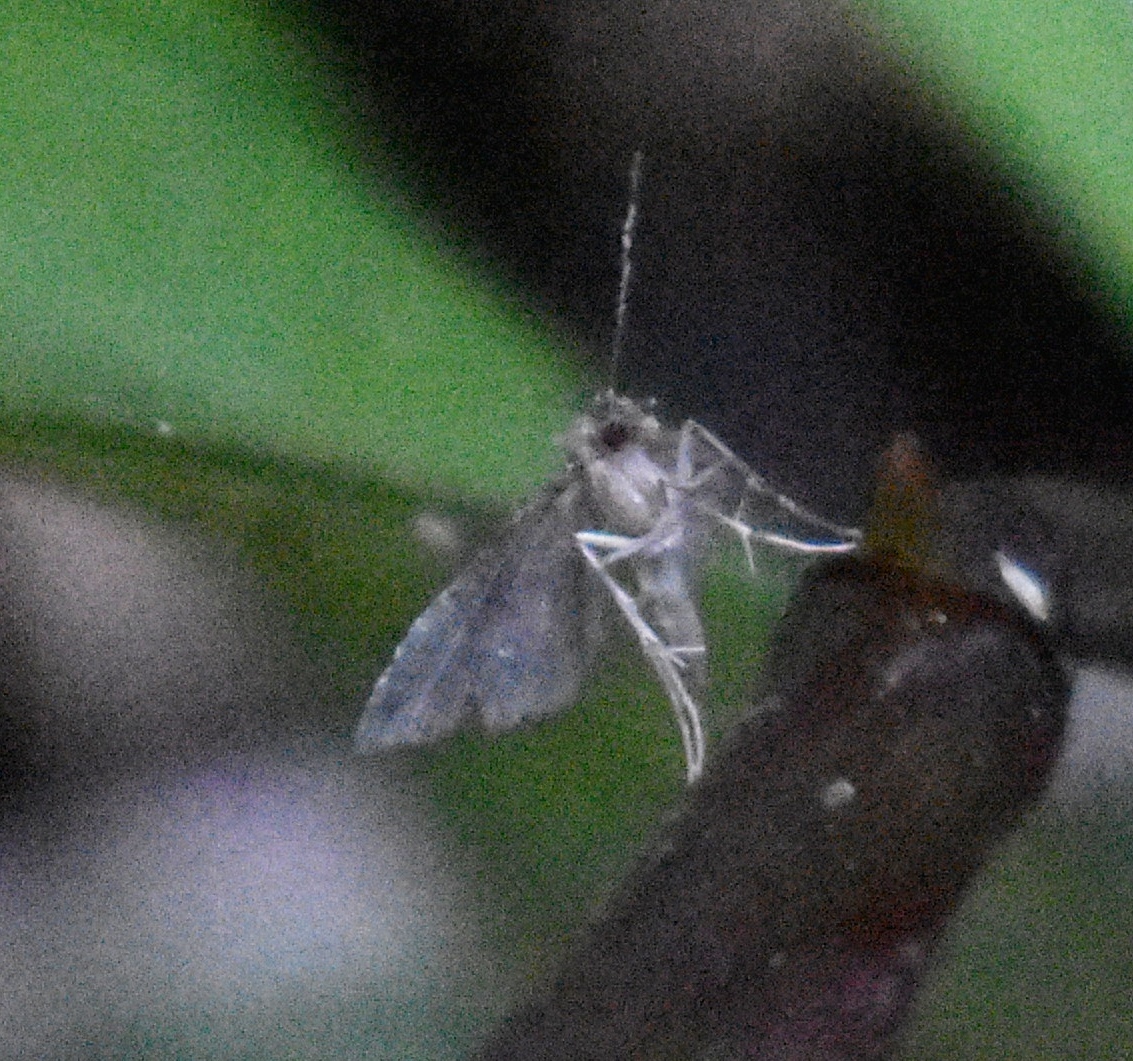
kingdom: Animalia
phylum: Arthropoda
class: Insecta
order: Lepidoptera
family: Erebidae
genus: Pseudoschrankia
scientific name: Pseudoschrankia brevipalpis
